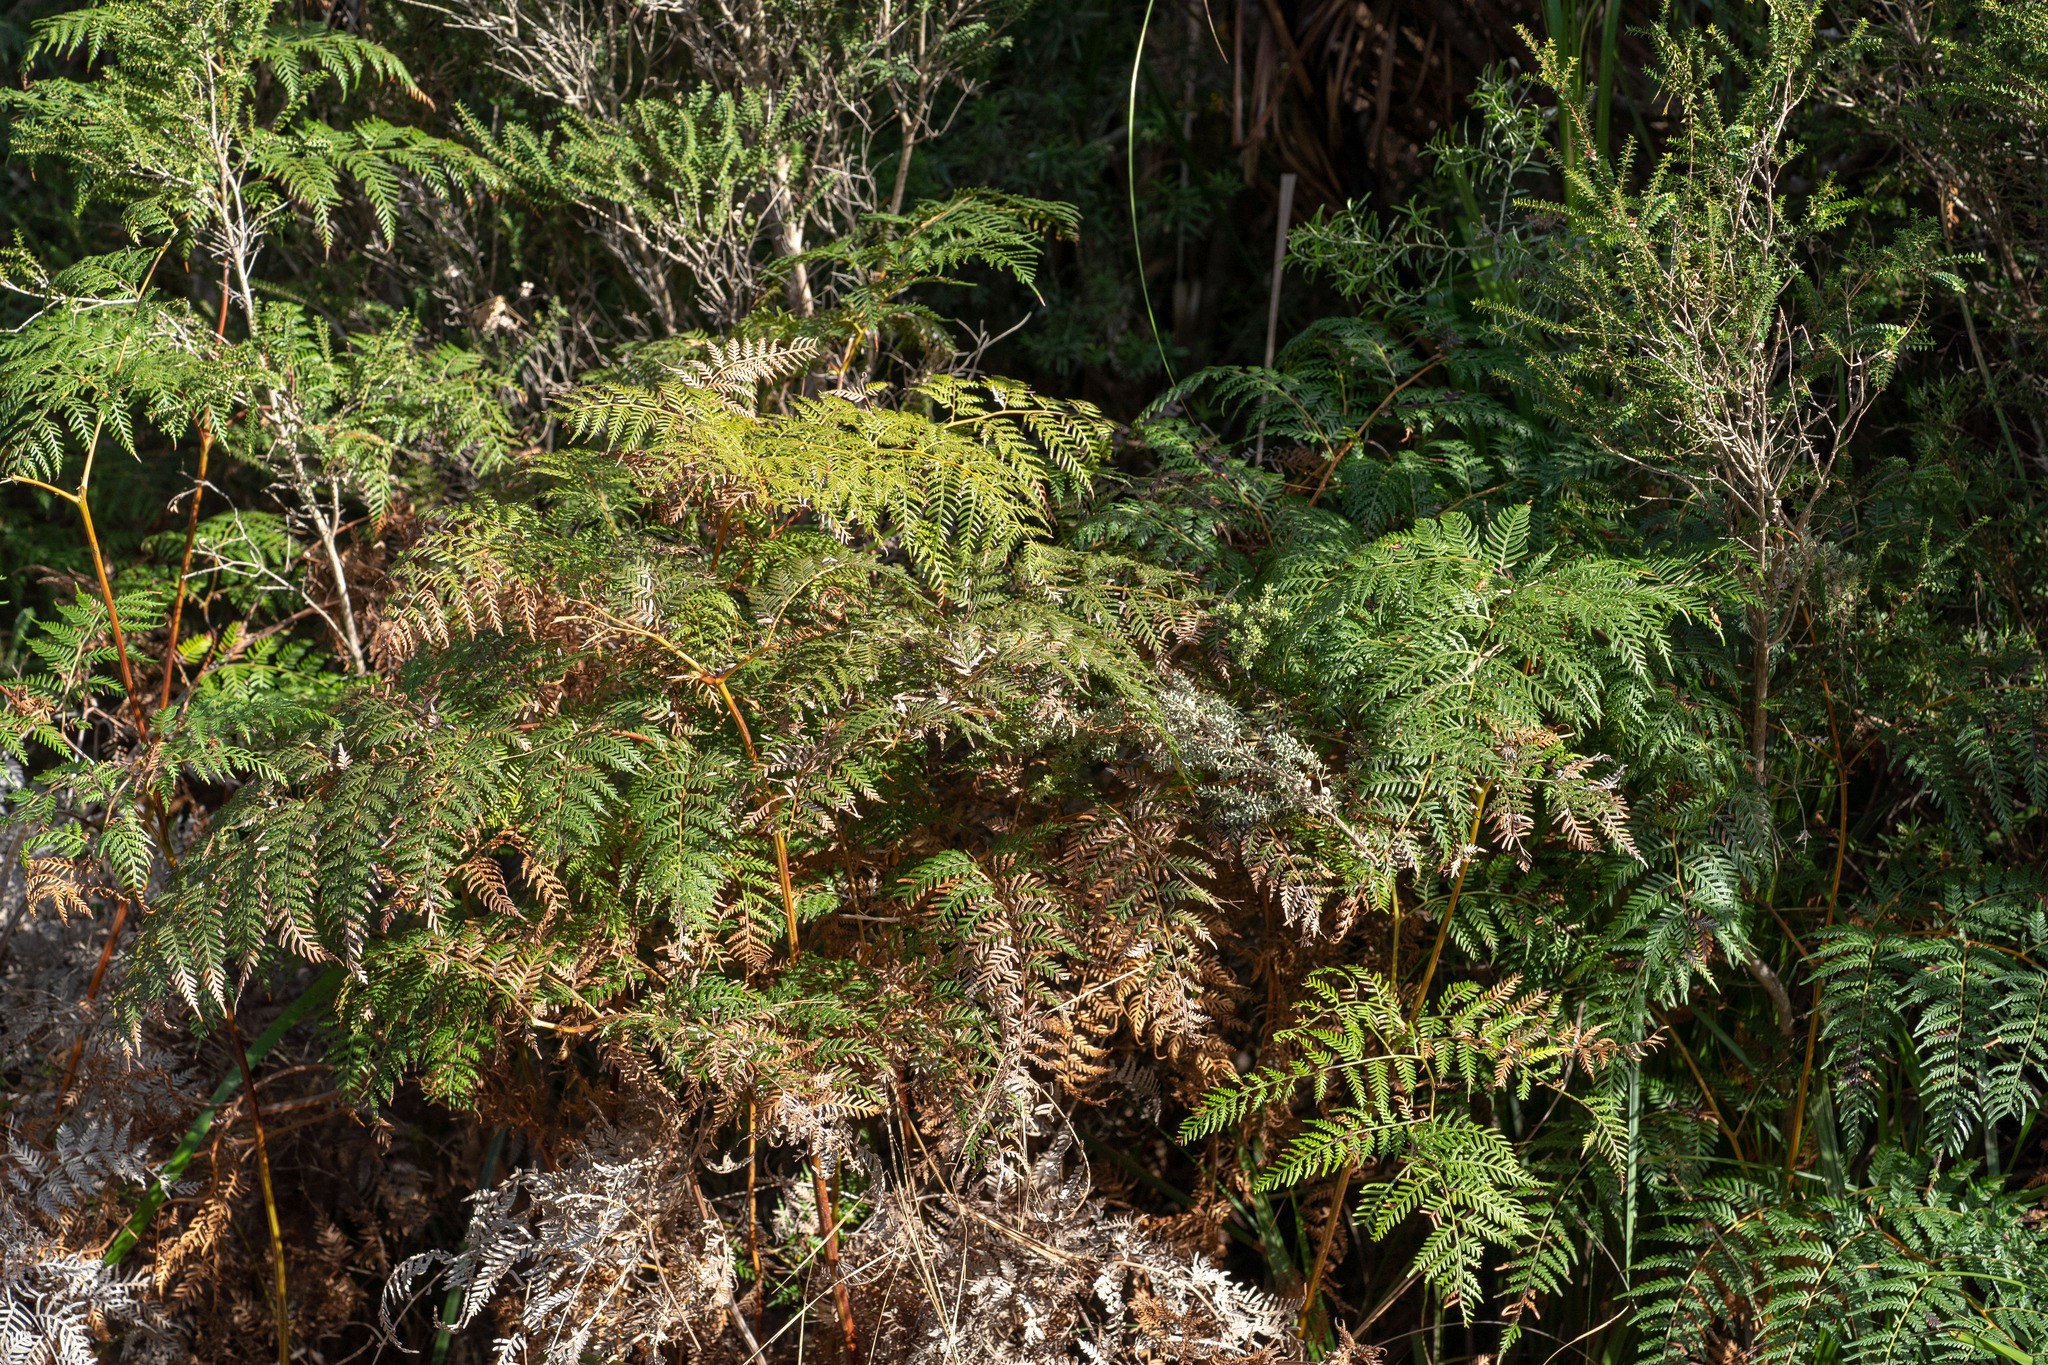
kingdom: Plantae
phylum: Tracheophyta
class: Polypodiopsida
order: Polypodiales
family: Dennstaedtiaceae
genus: Pteridium
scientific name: Pteridium esculentum
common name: Bracken fern
